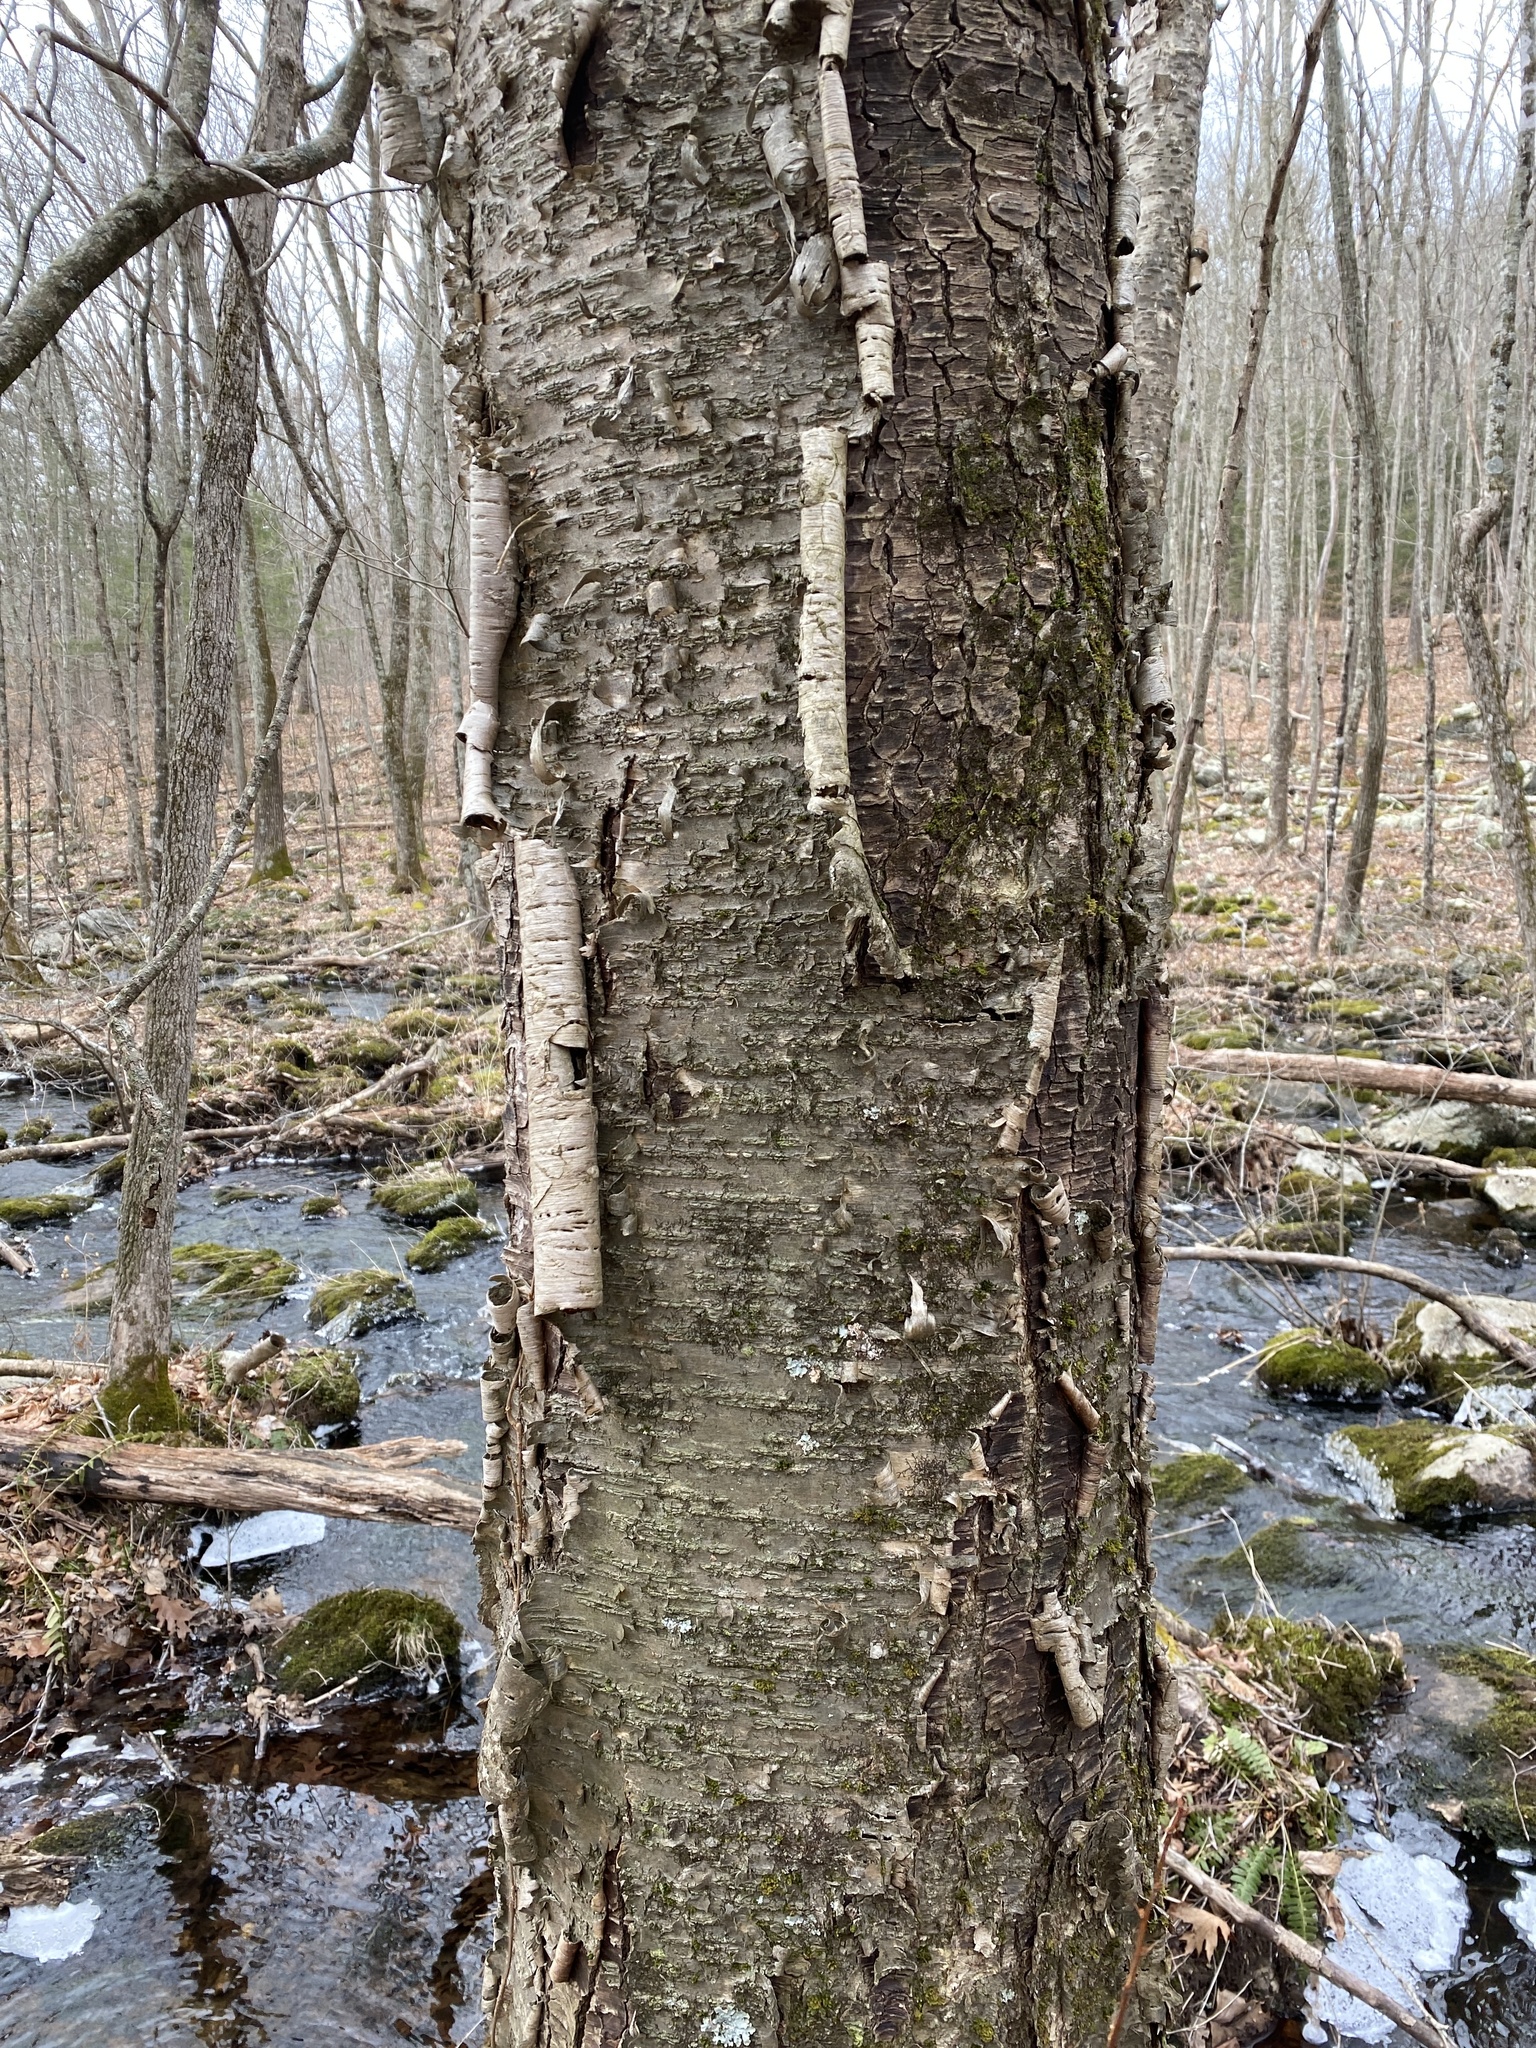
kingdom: Plantae
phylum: Tracheophyta
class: Magnoliopsida
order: Fagales
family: Betulaceae
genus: Betula
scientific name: Betula alleghaniensis
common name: Yellow birch
